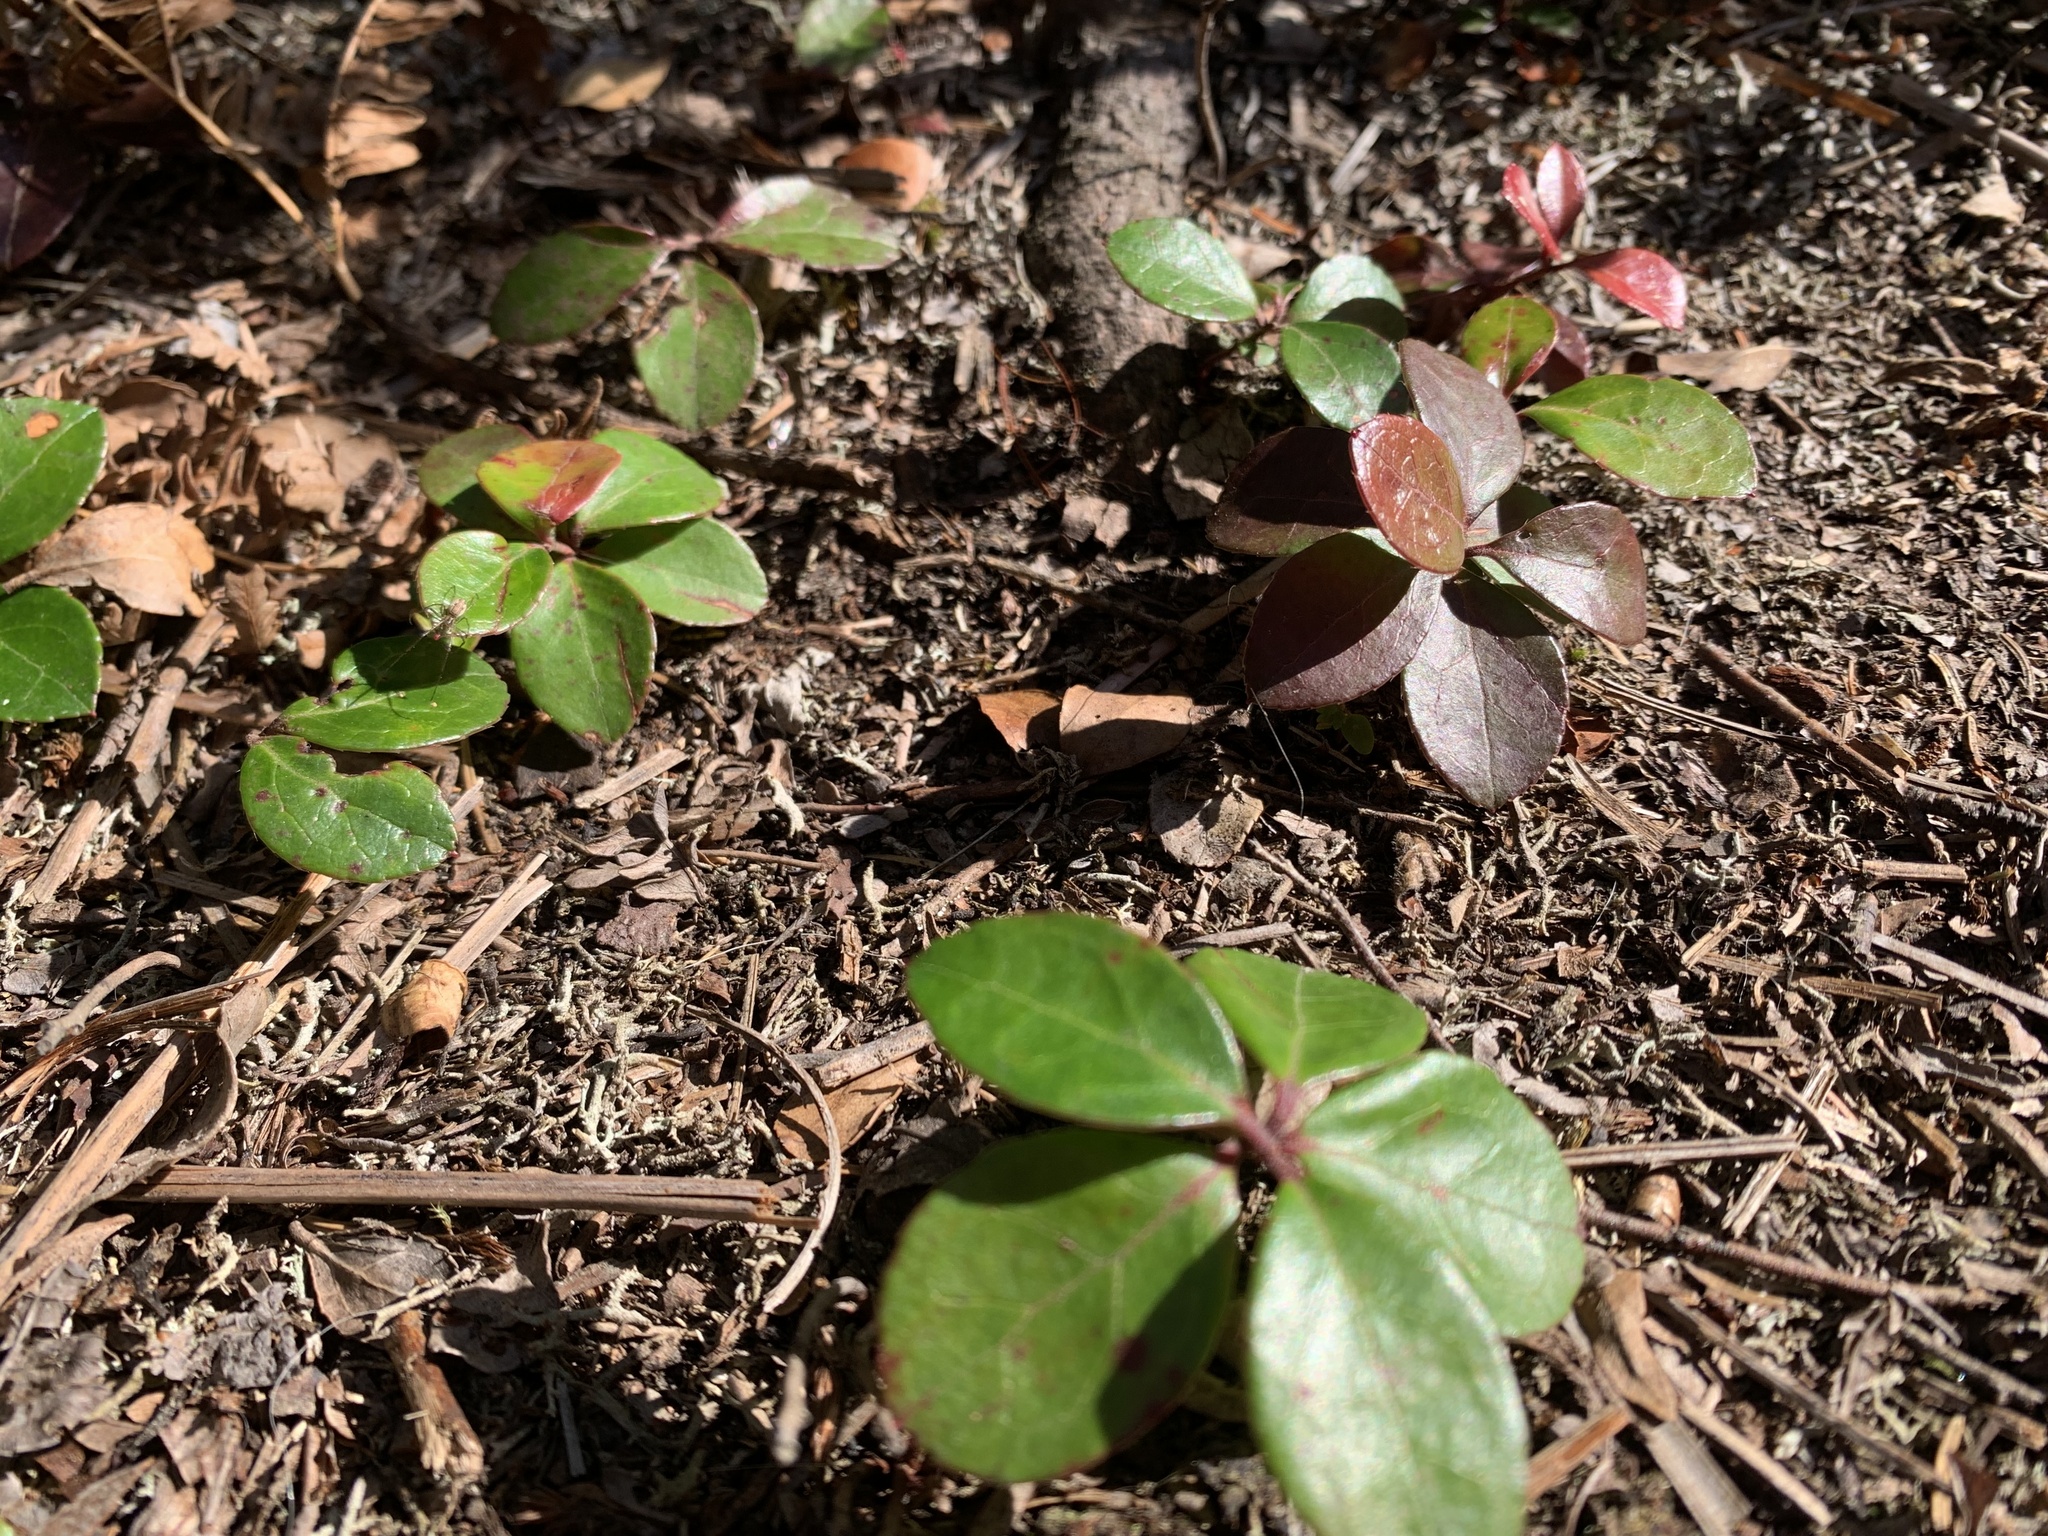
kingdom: Plantae
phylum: Tracheophyta
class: Magnoliopsida
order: Ericales
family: Ericaceae
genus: Gaultheria
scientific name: Gaultheria procumbens
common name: Checkerberry
